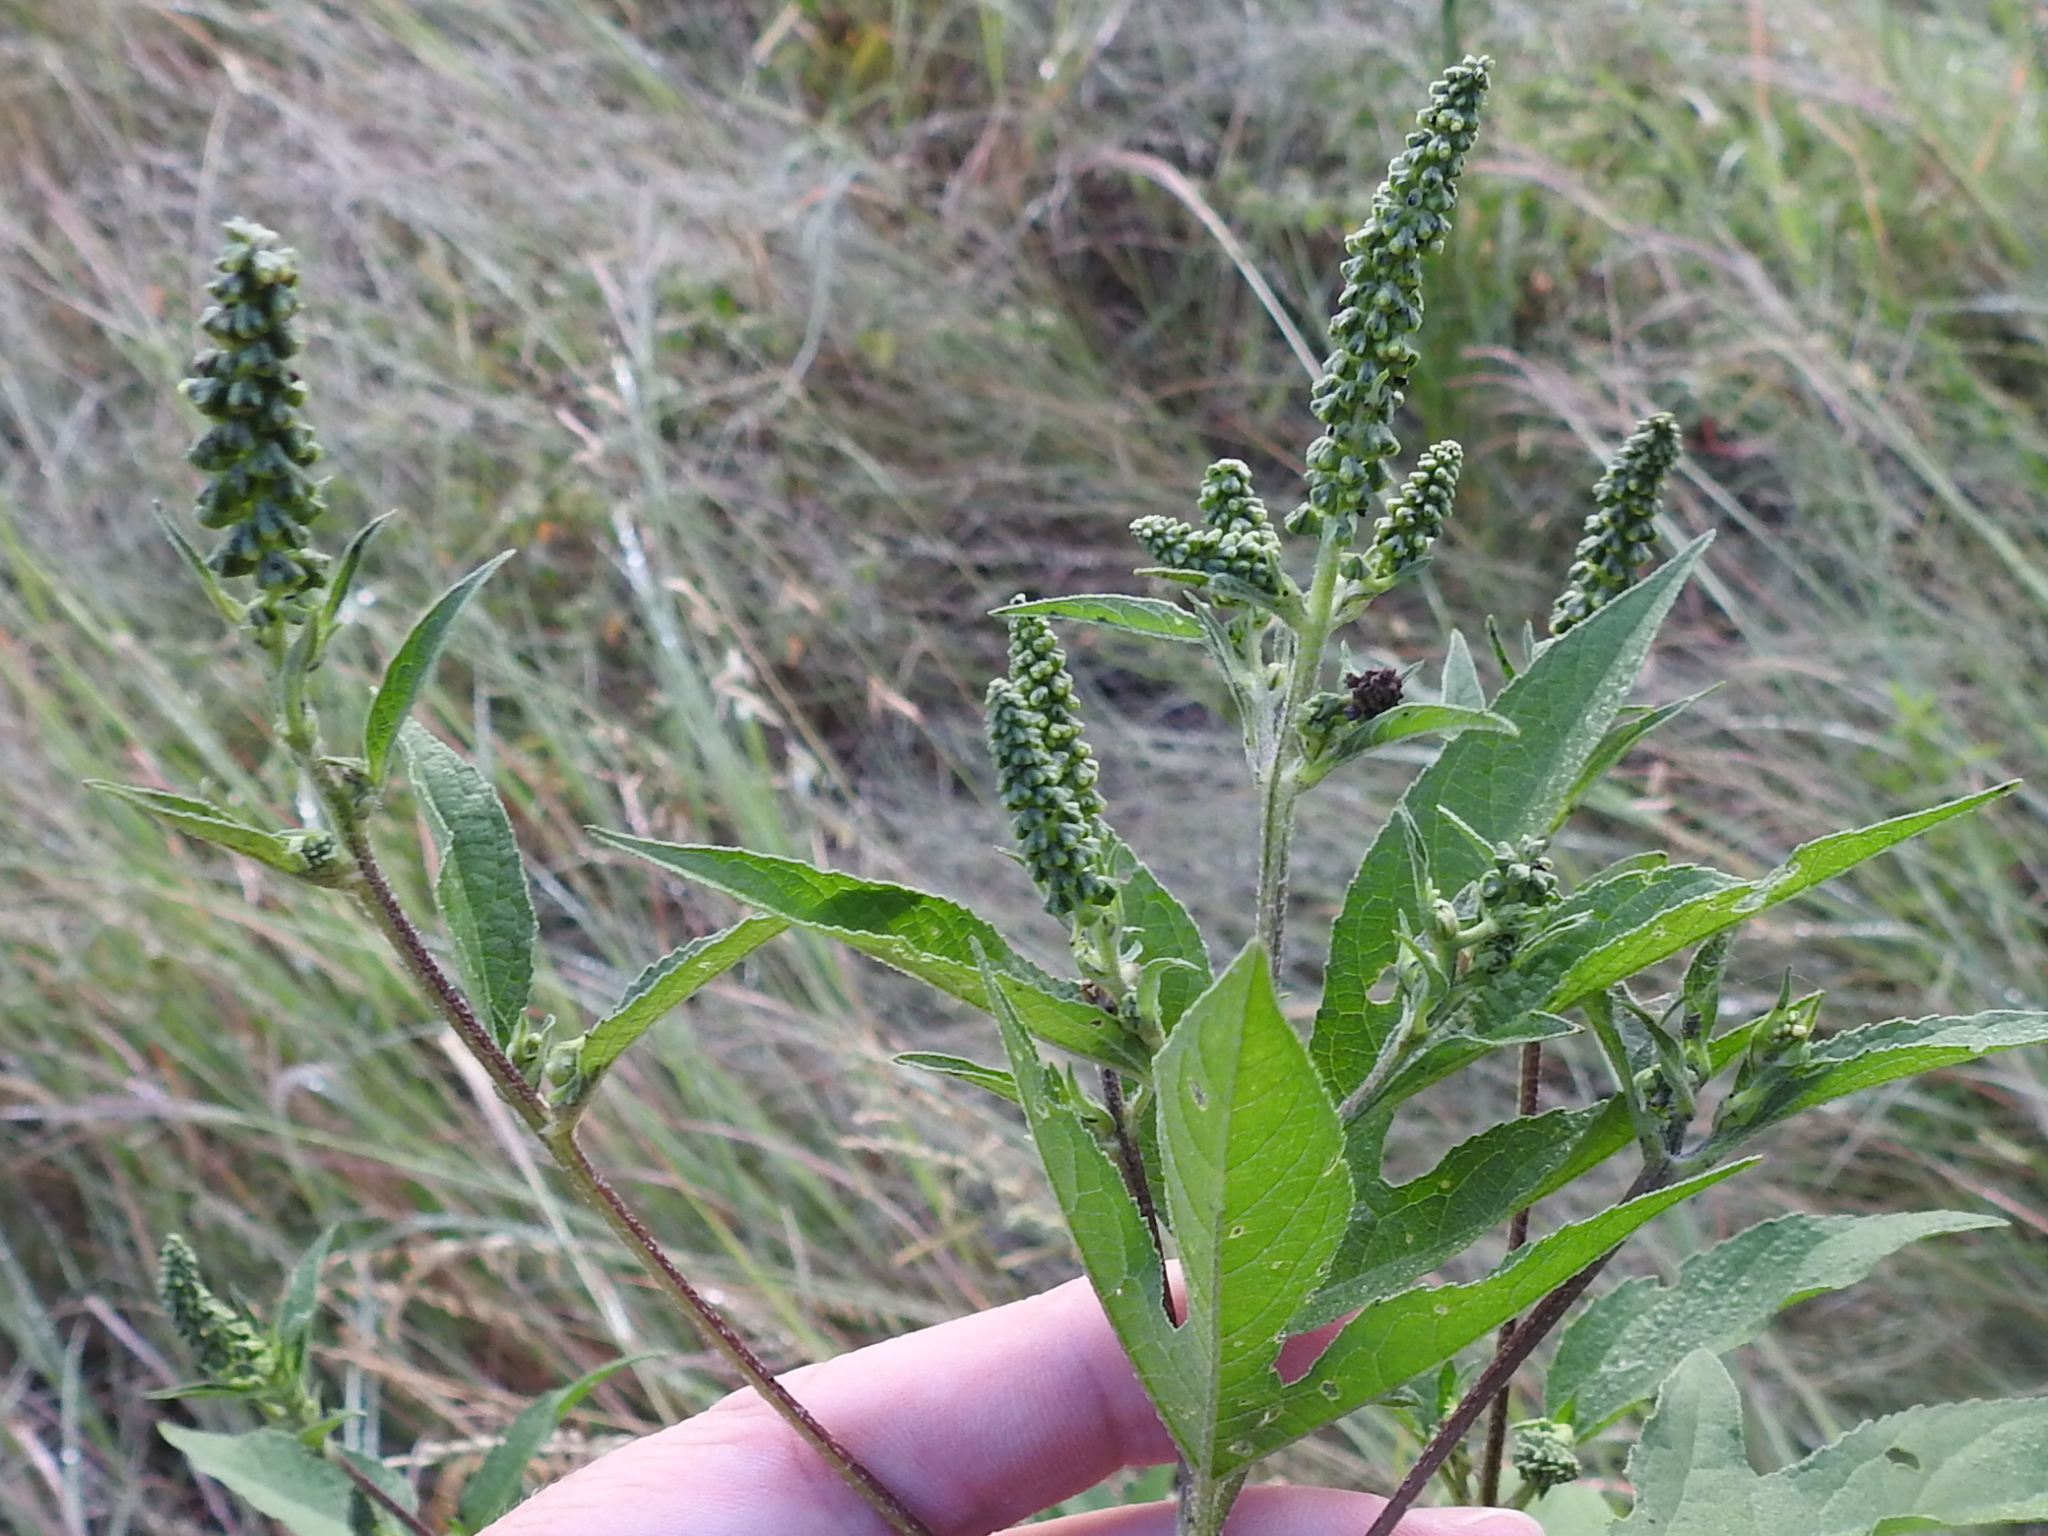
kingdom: Plantae
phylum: Tracheophyta
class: Magnoliopsida
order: Asterales
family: Asteraceae
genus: Ambrosia
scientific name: Ambrosia trifida
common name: Giant ragweed
